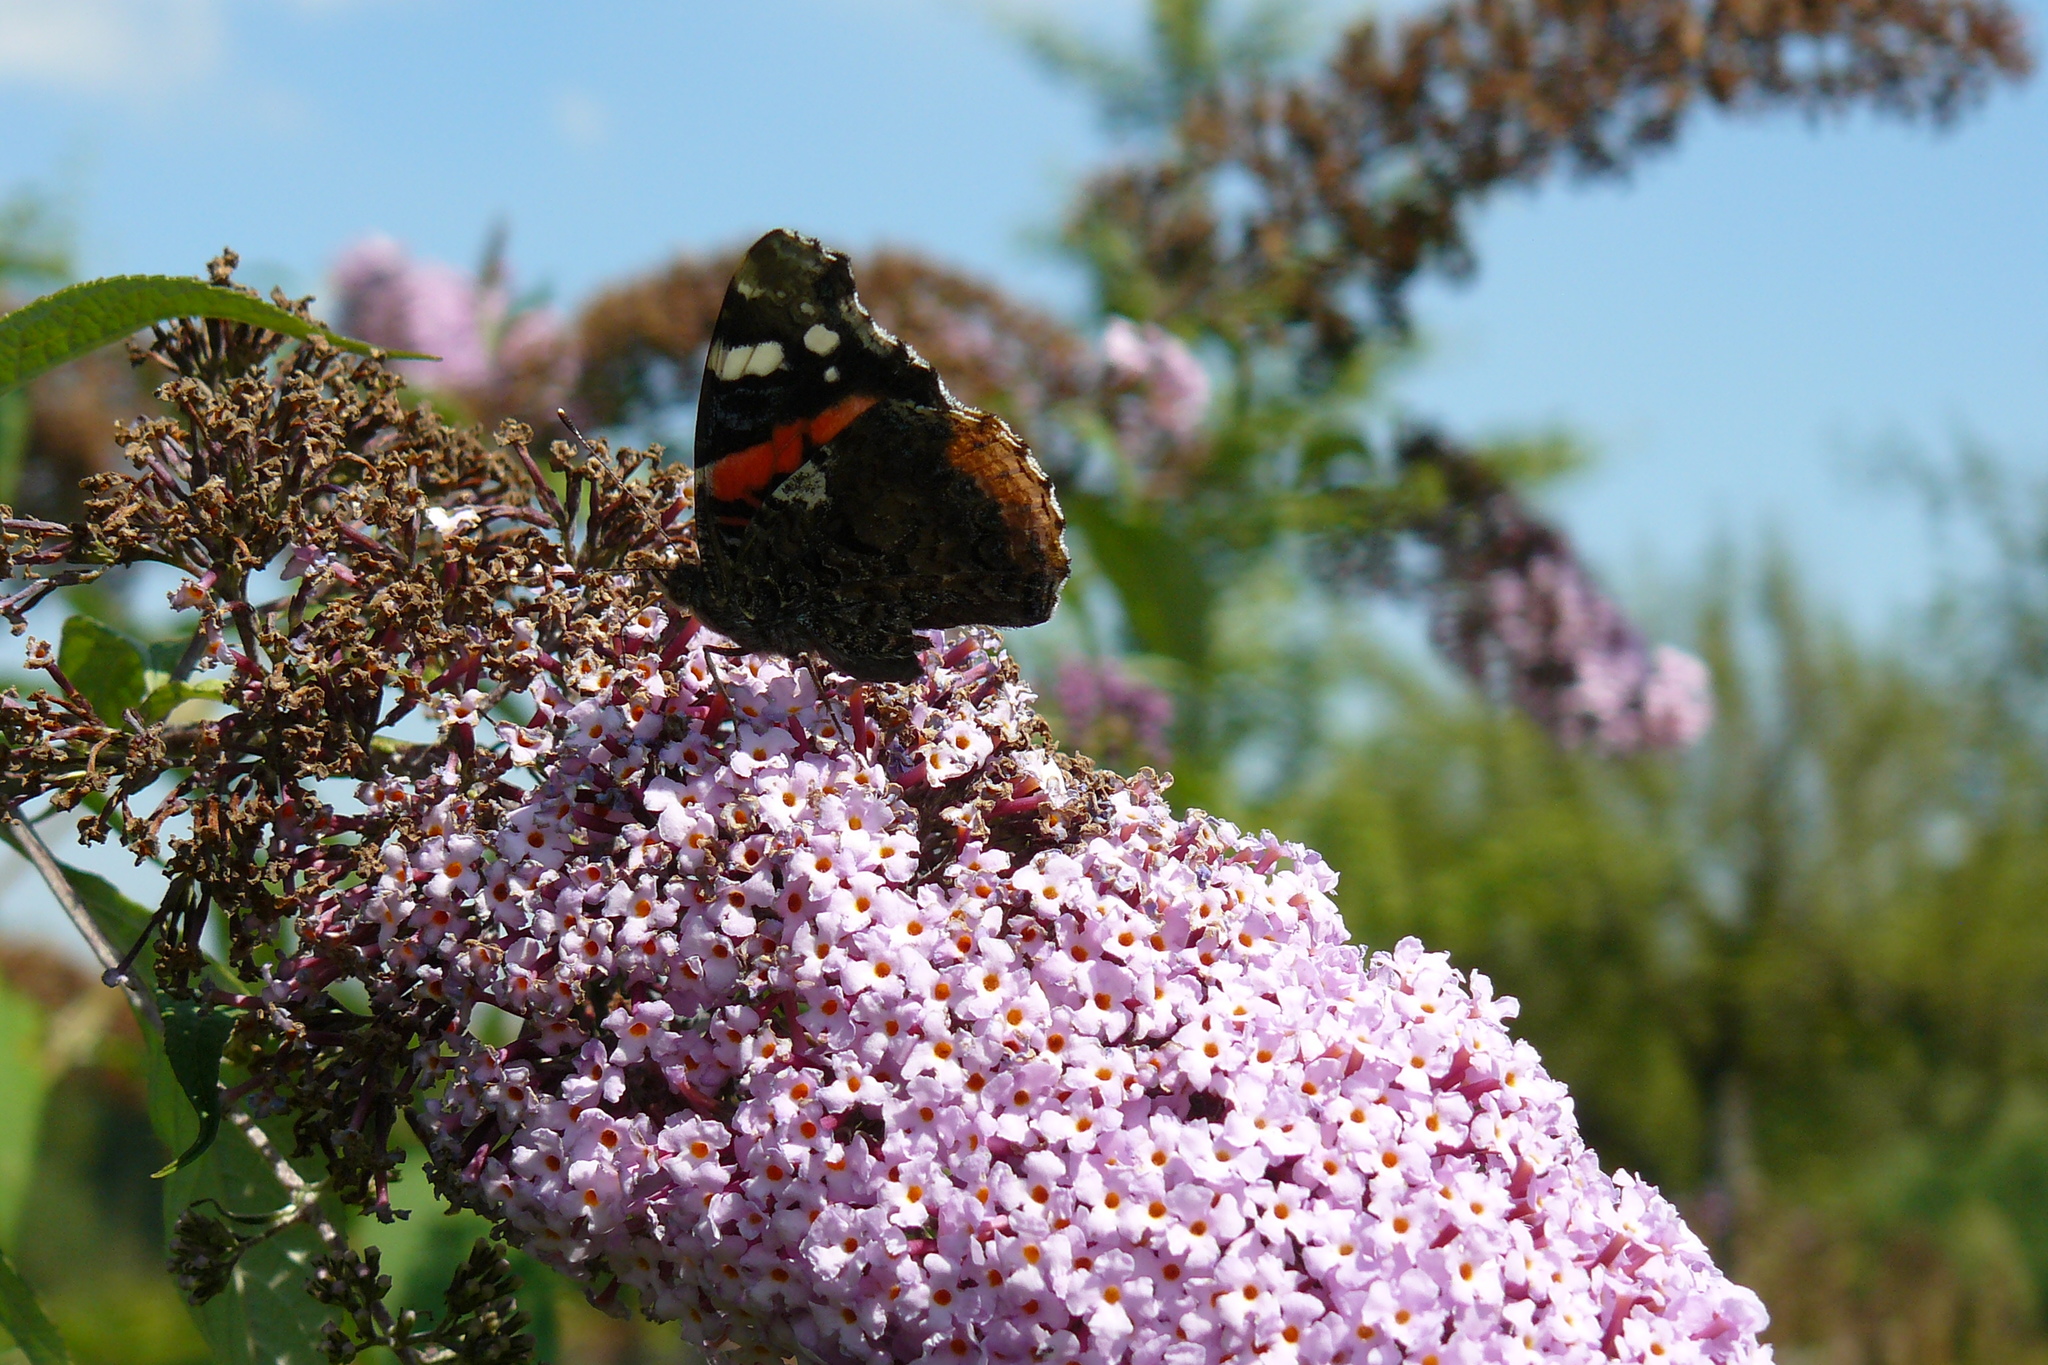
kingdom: Animalia
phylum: Arthropoda
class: Insecta
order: Lepidoptera
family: Nymphalidae
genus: Vanessa
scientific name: Vanessa atalanta
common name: Red admiral
